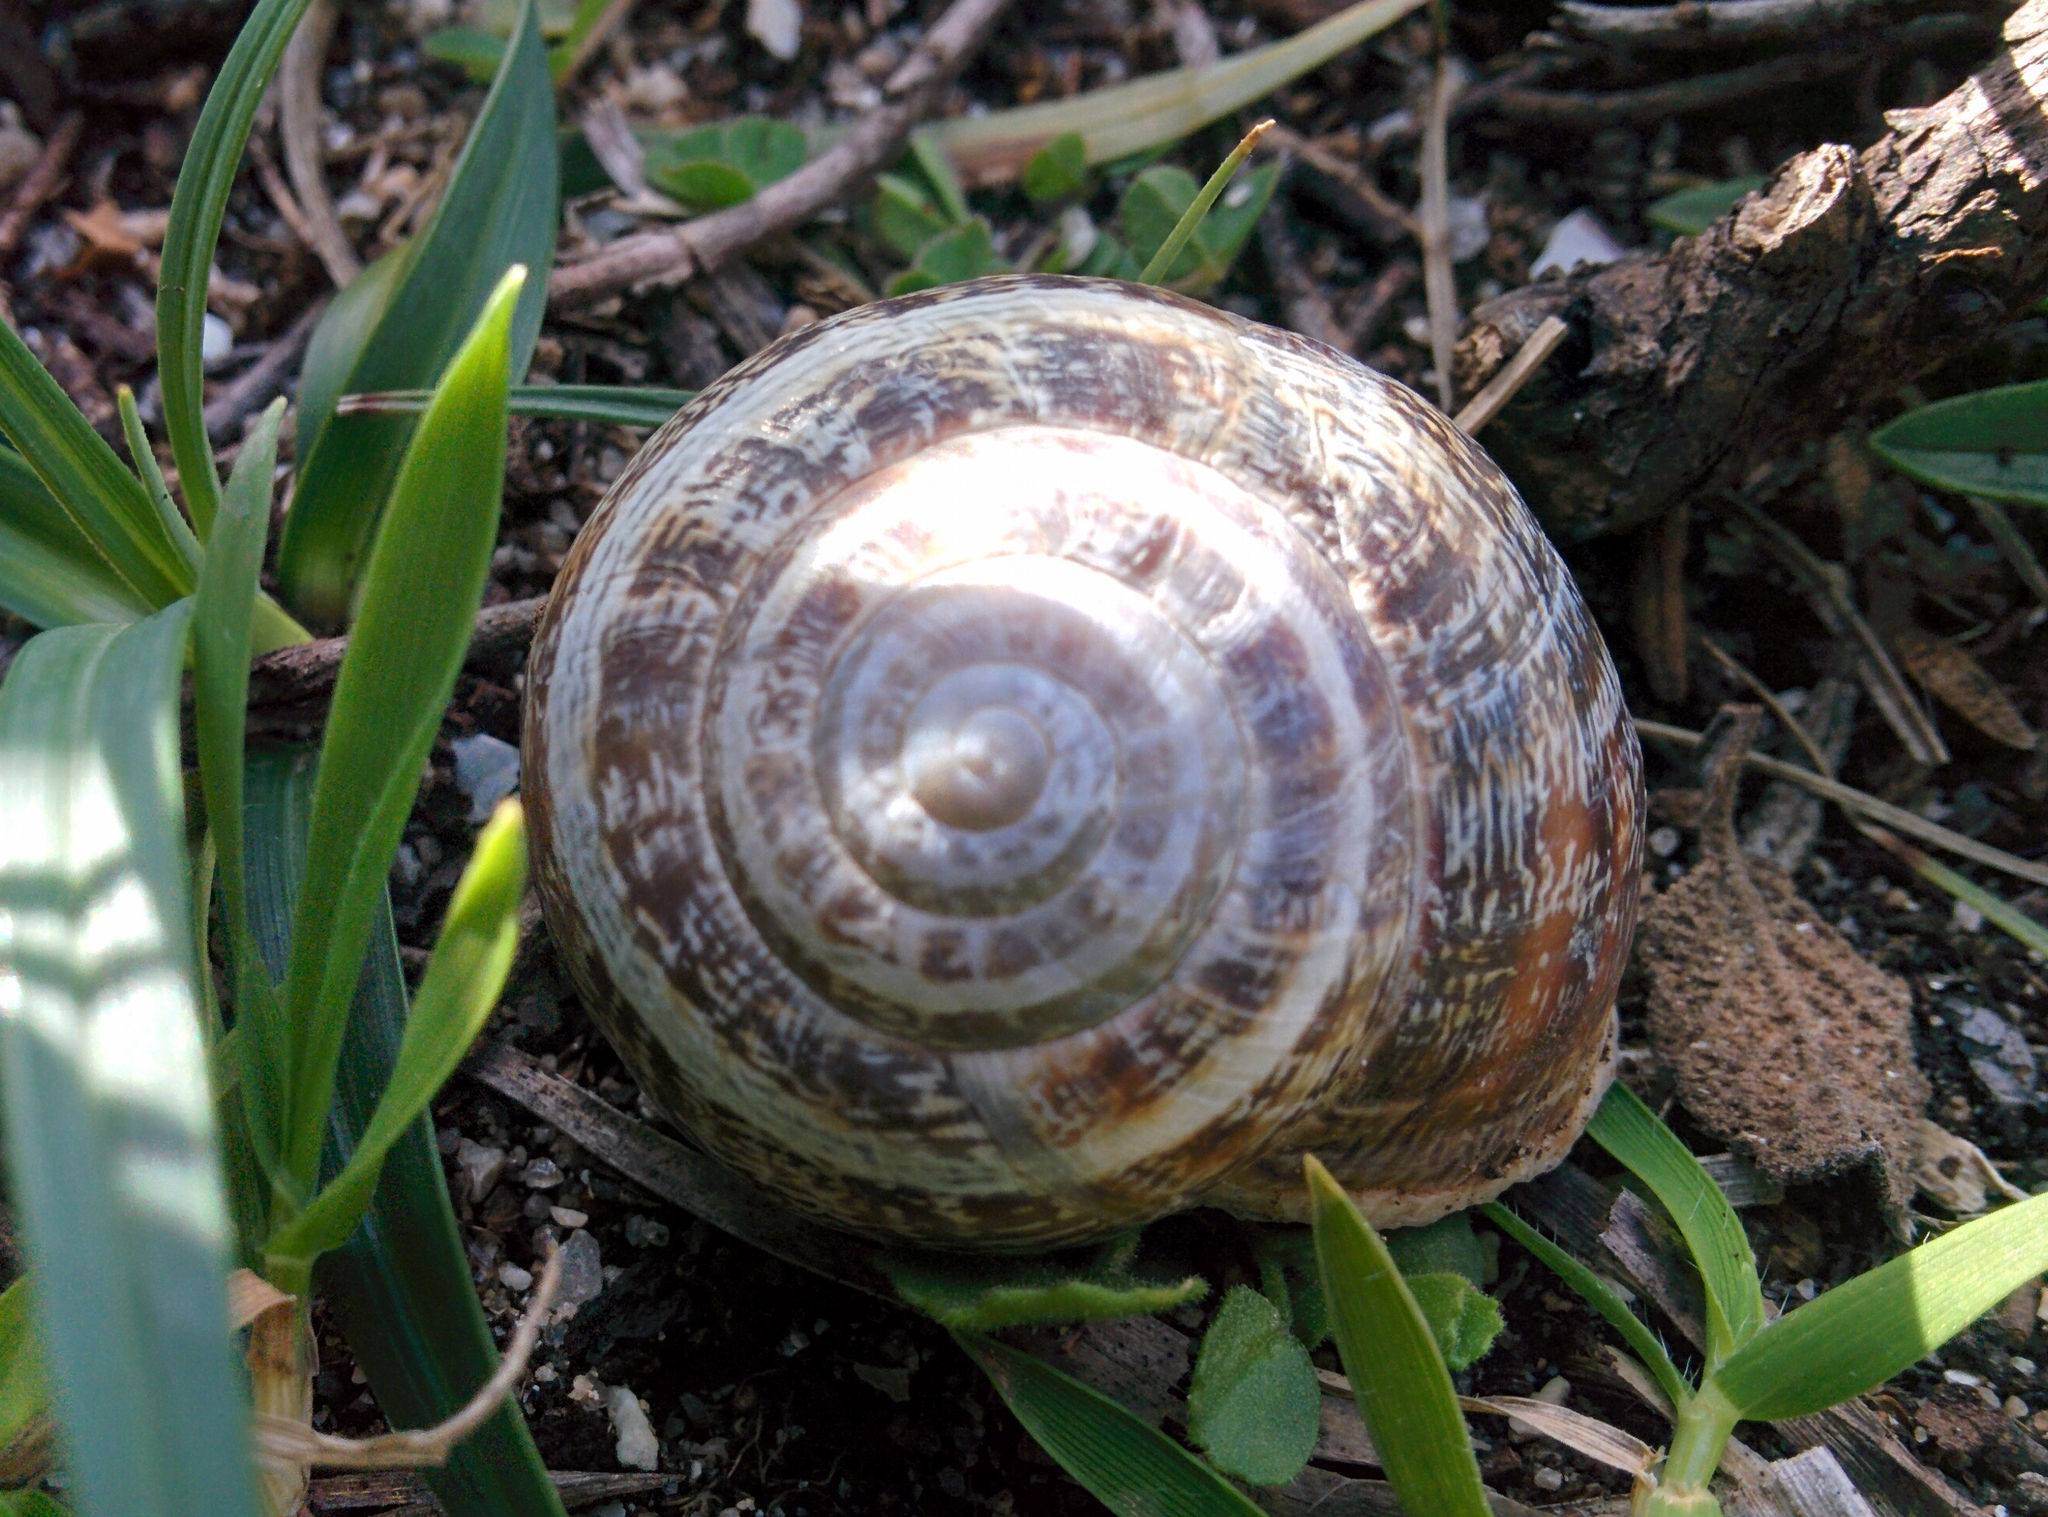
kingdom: Animalia
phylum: Mollusca
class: Gastropoda
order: Stylommatophora
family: Helicidae
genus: Eobania
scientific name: Eobania vermiculata
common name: Chocolateband snail
